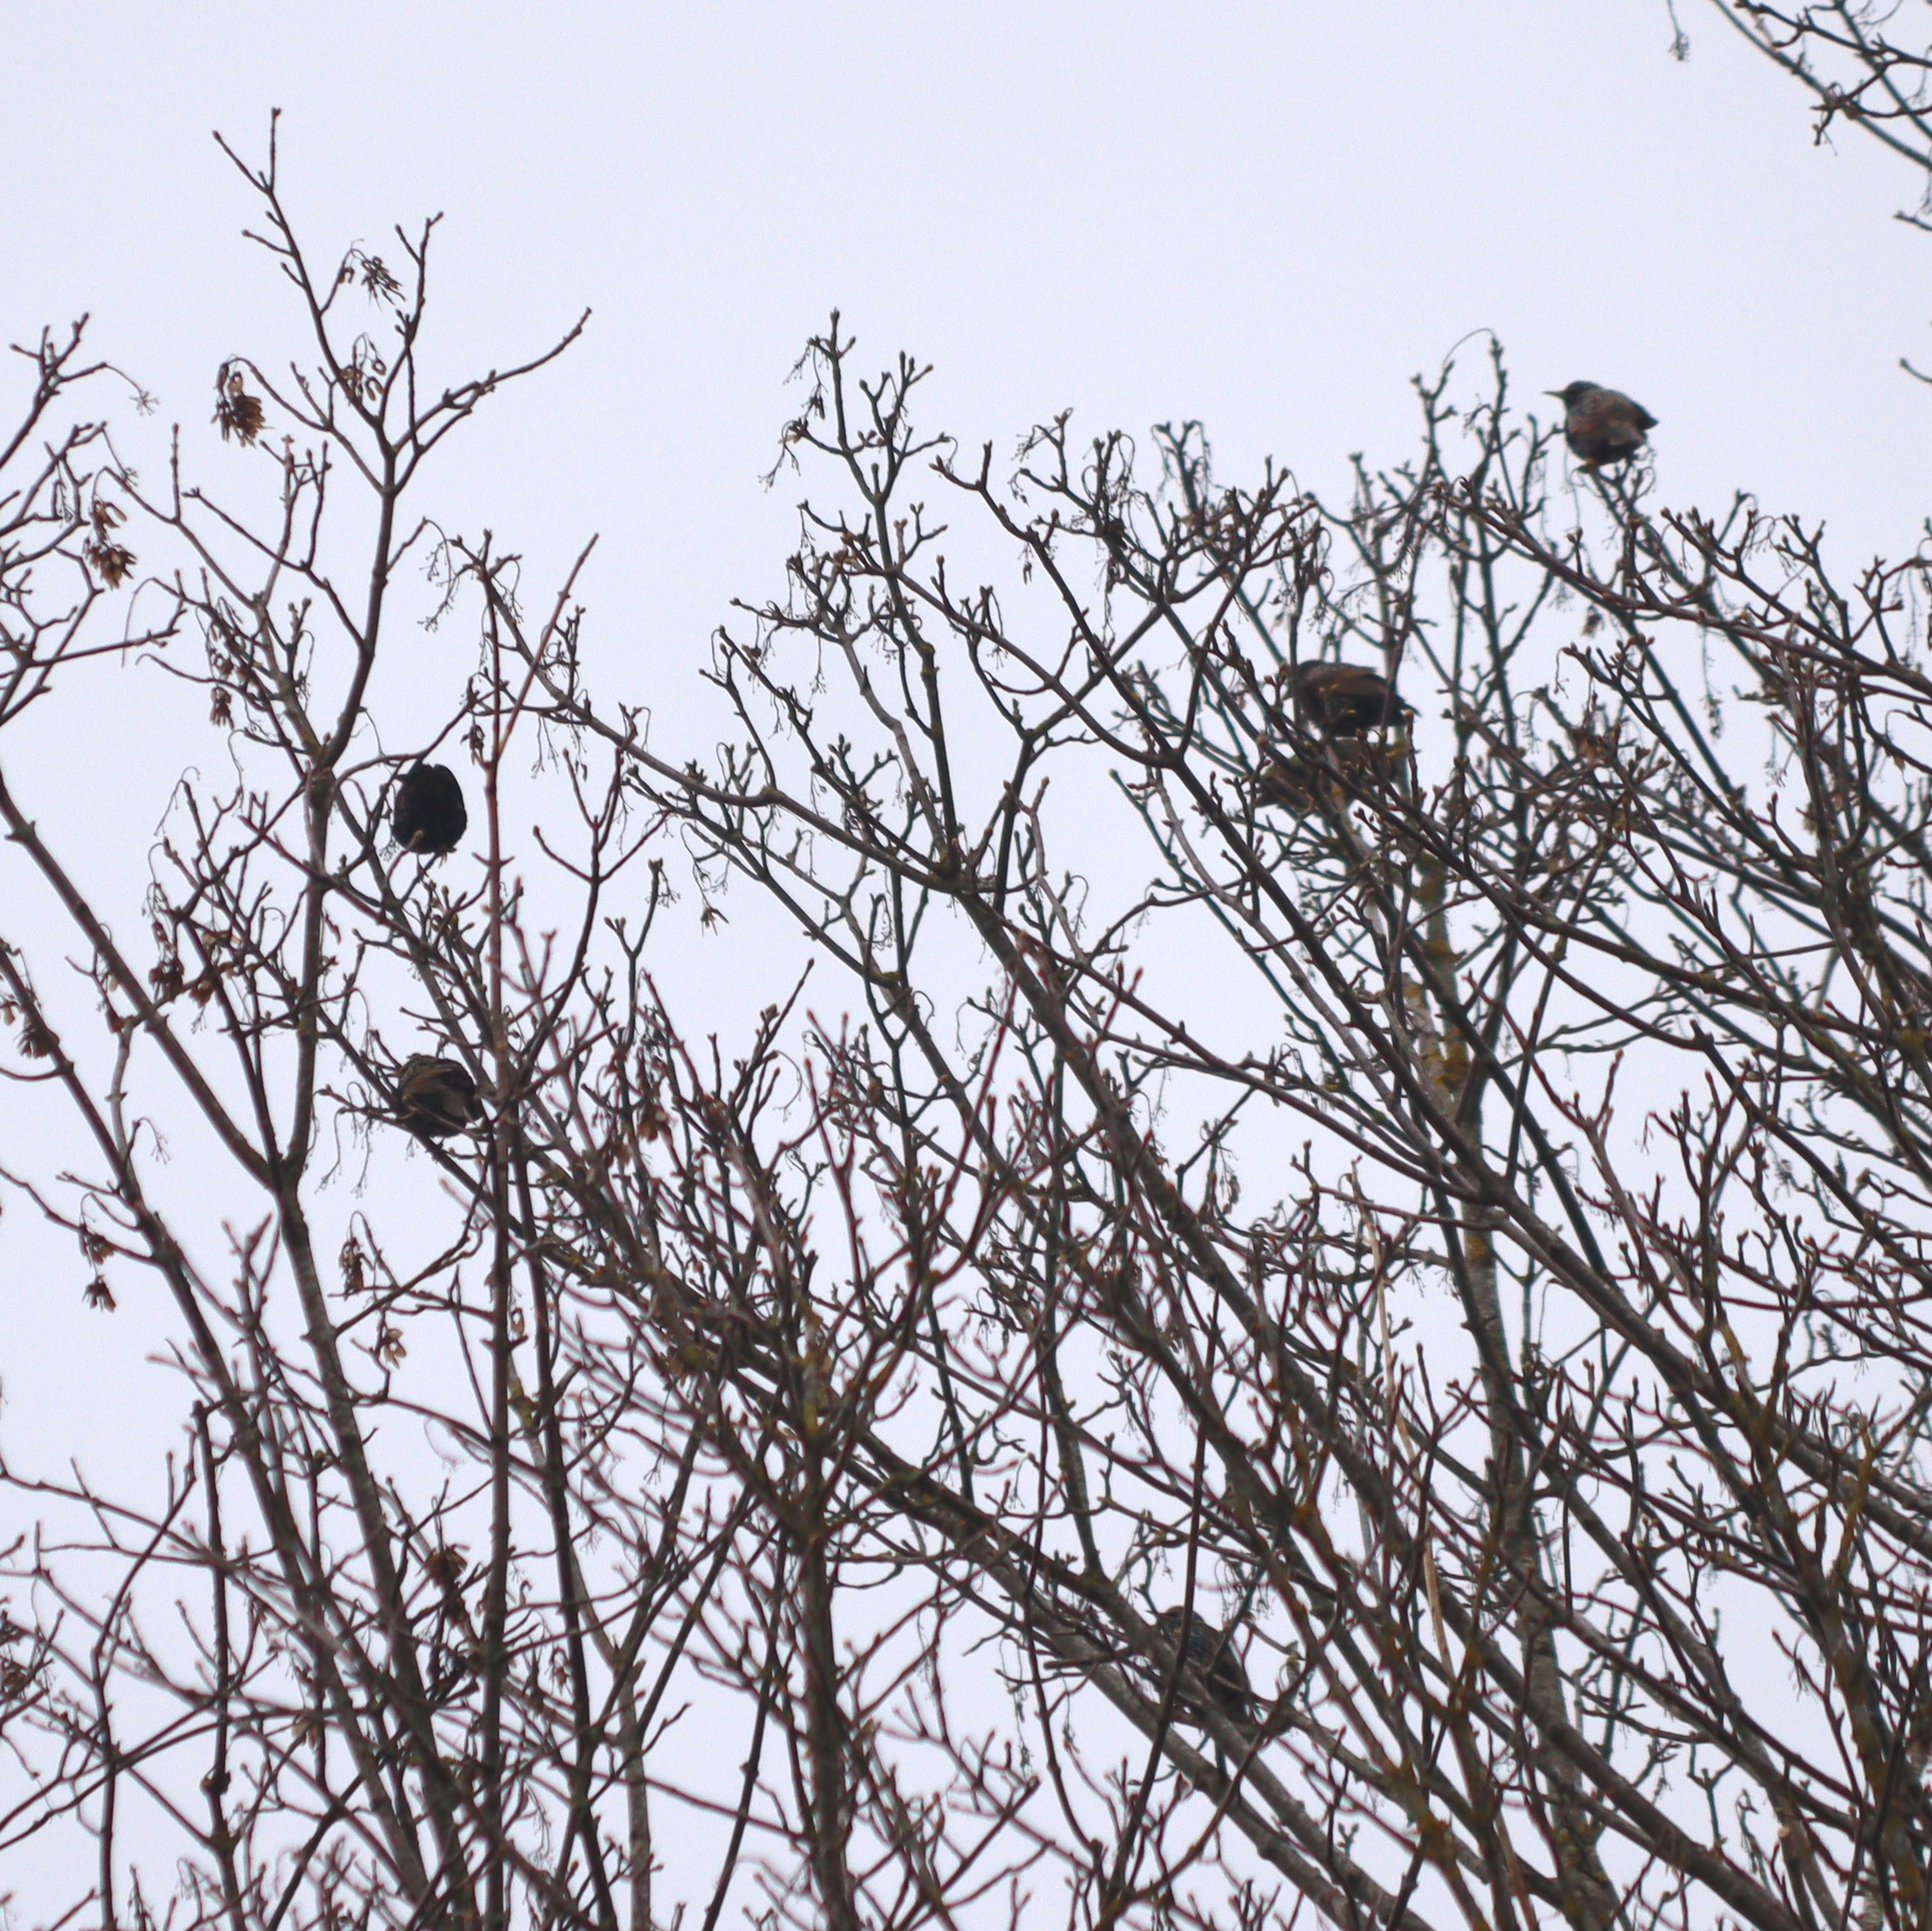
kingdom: Animalia
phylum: Chordata
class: Aves
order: Passeriformes
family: Sturnidae
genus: Sturnus
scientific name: Sturnus vulgaris
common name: Common starling
